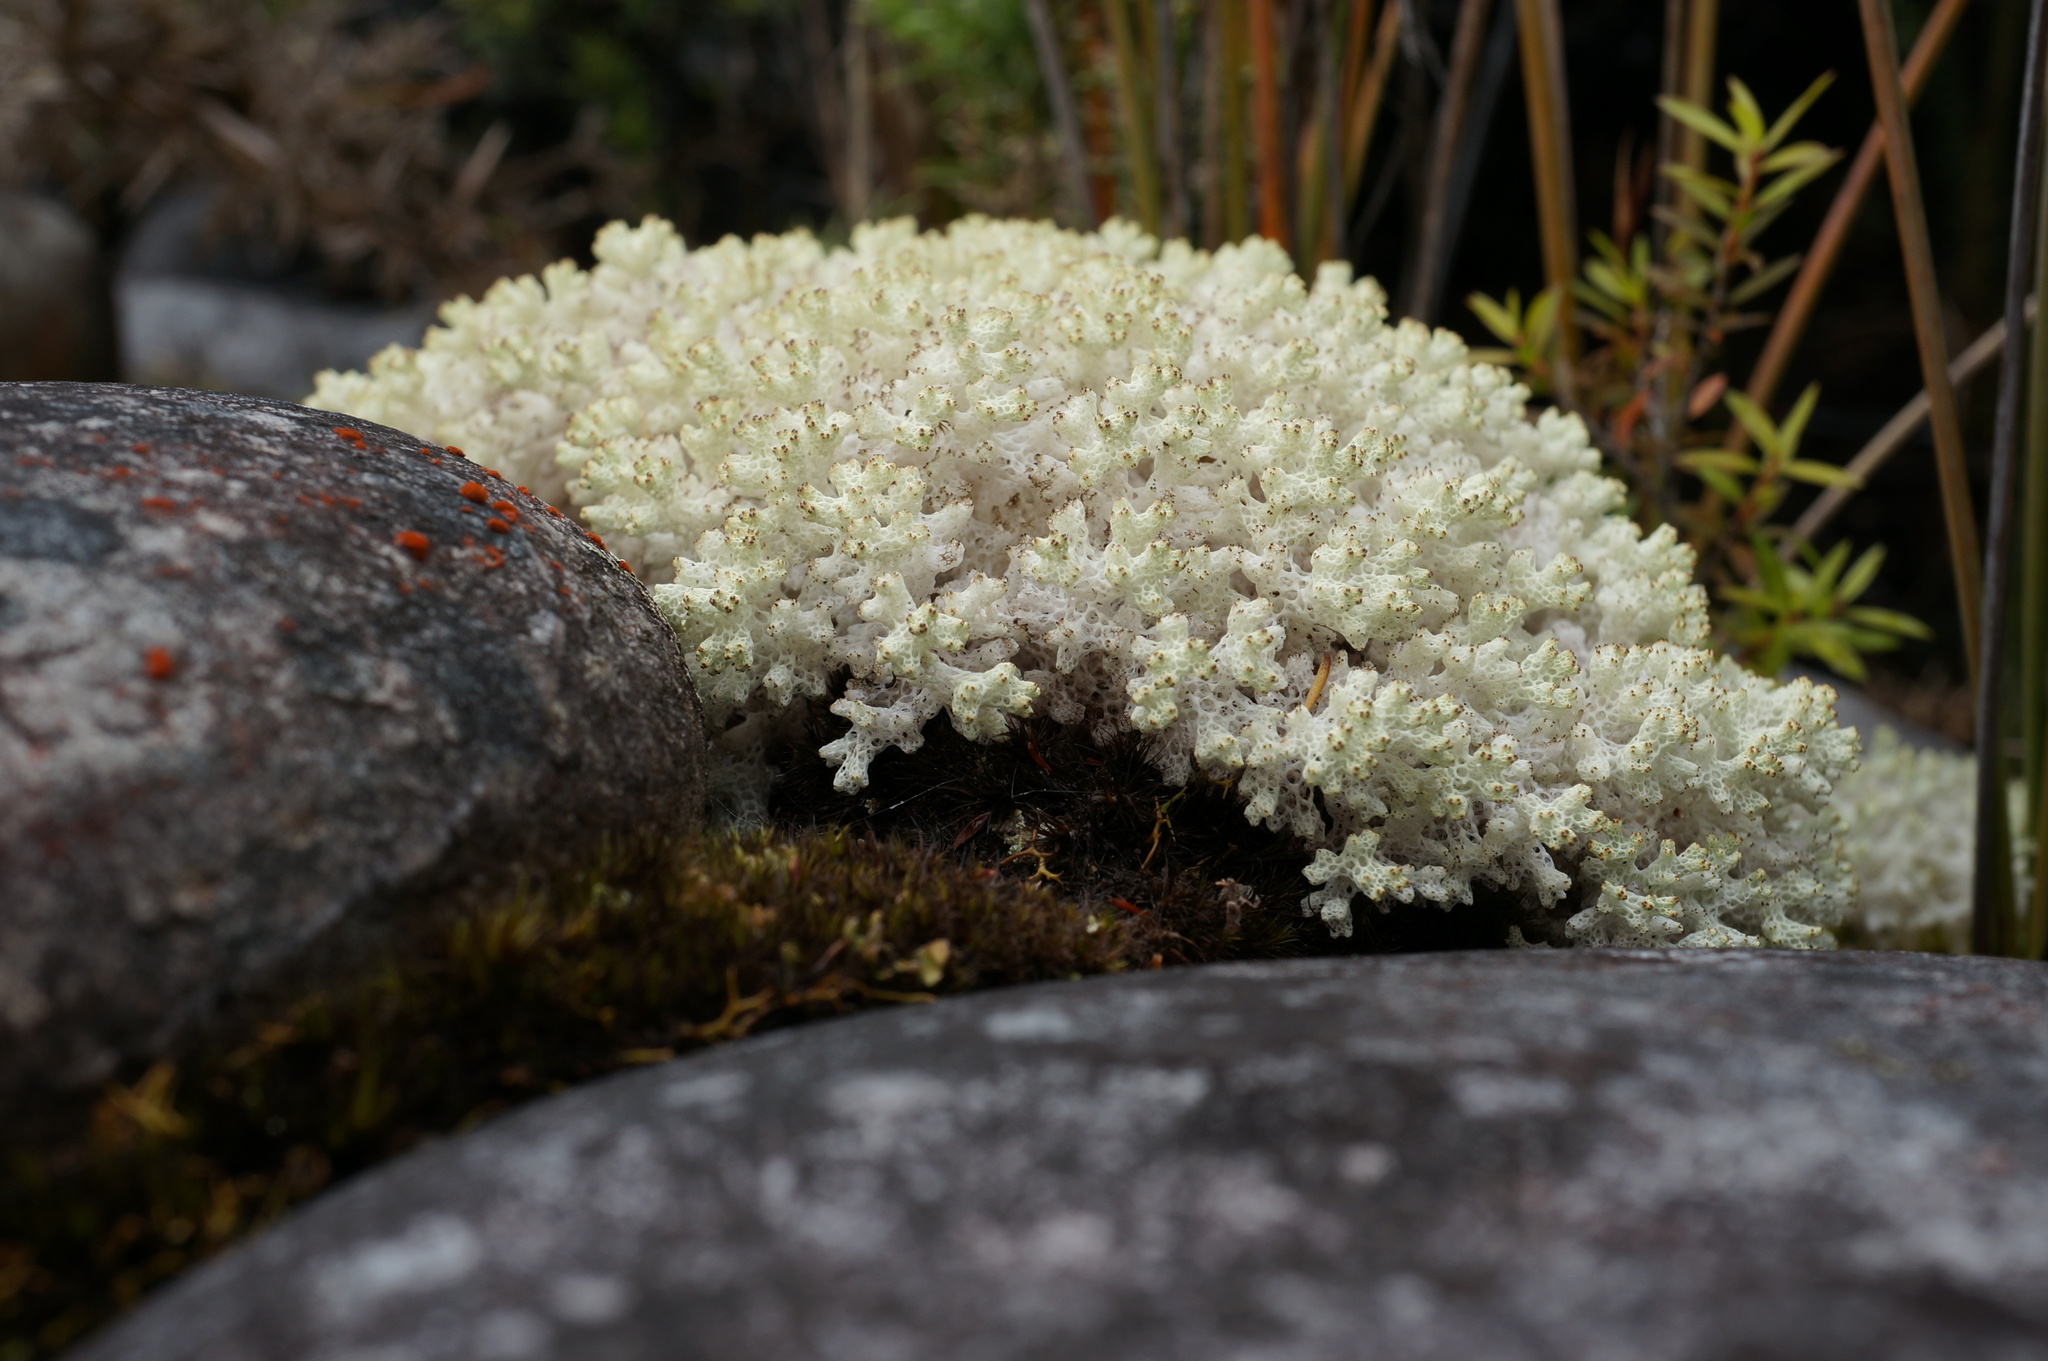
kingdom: Fungi
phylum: Ascomycota
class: Lecanoromycetes
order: Lecanorales
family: Cladoniaceae
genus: Pulchrocladia
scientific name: Pulchrocladia retipora
